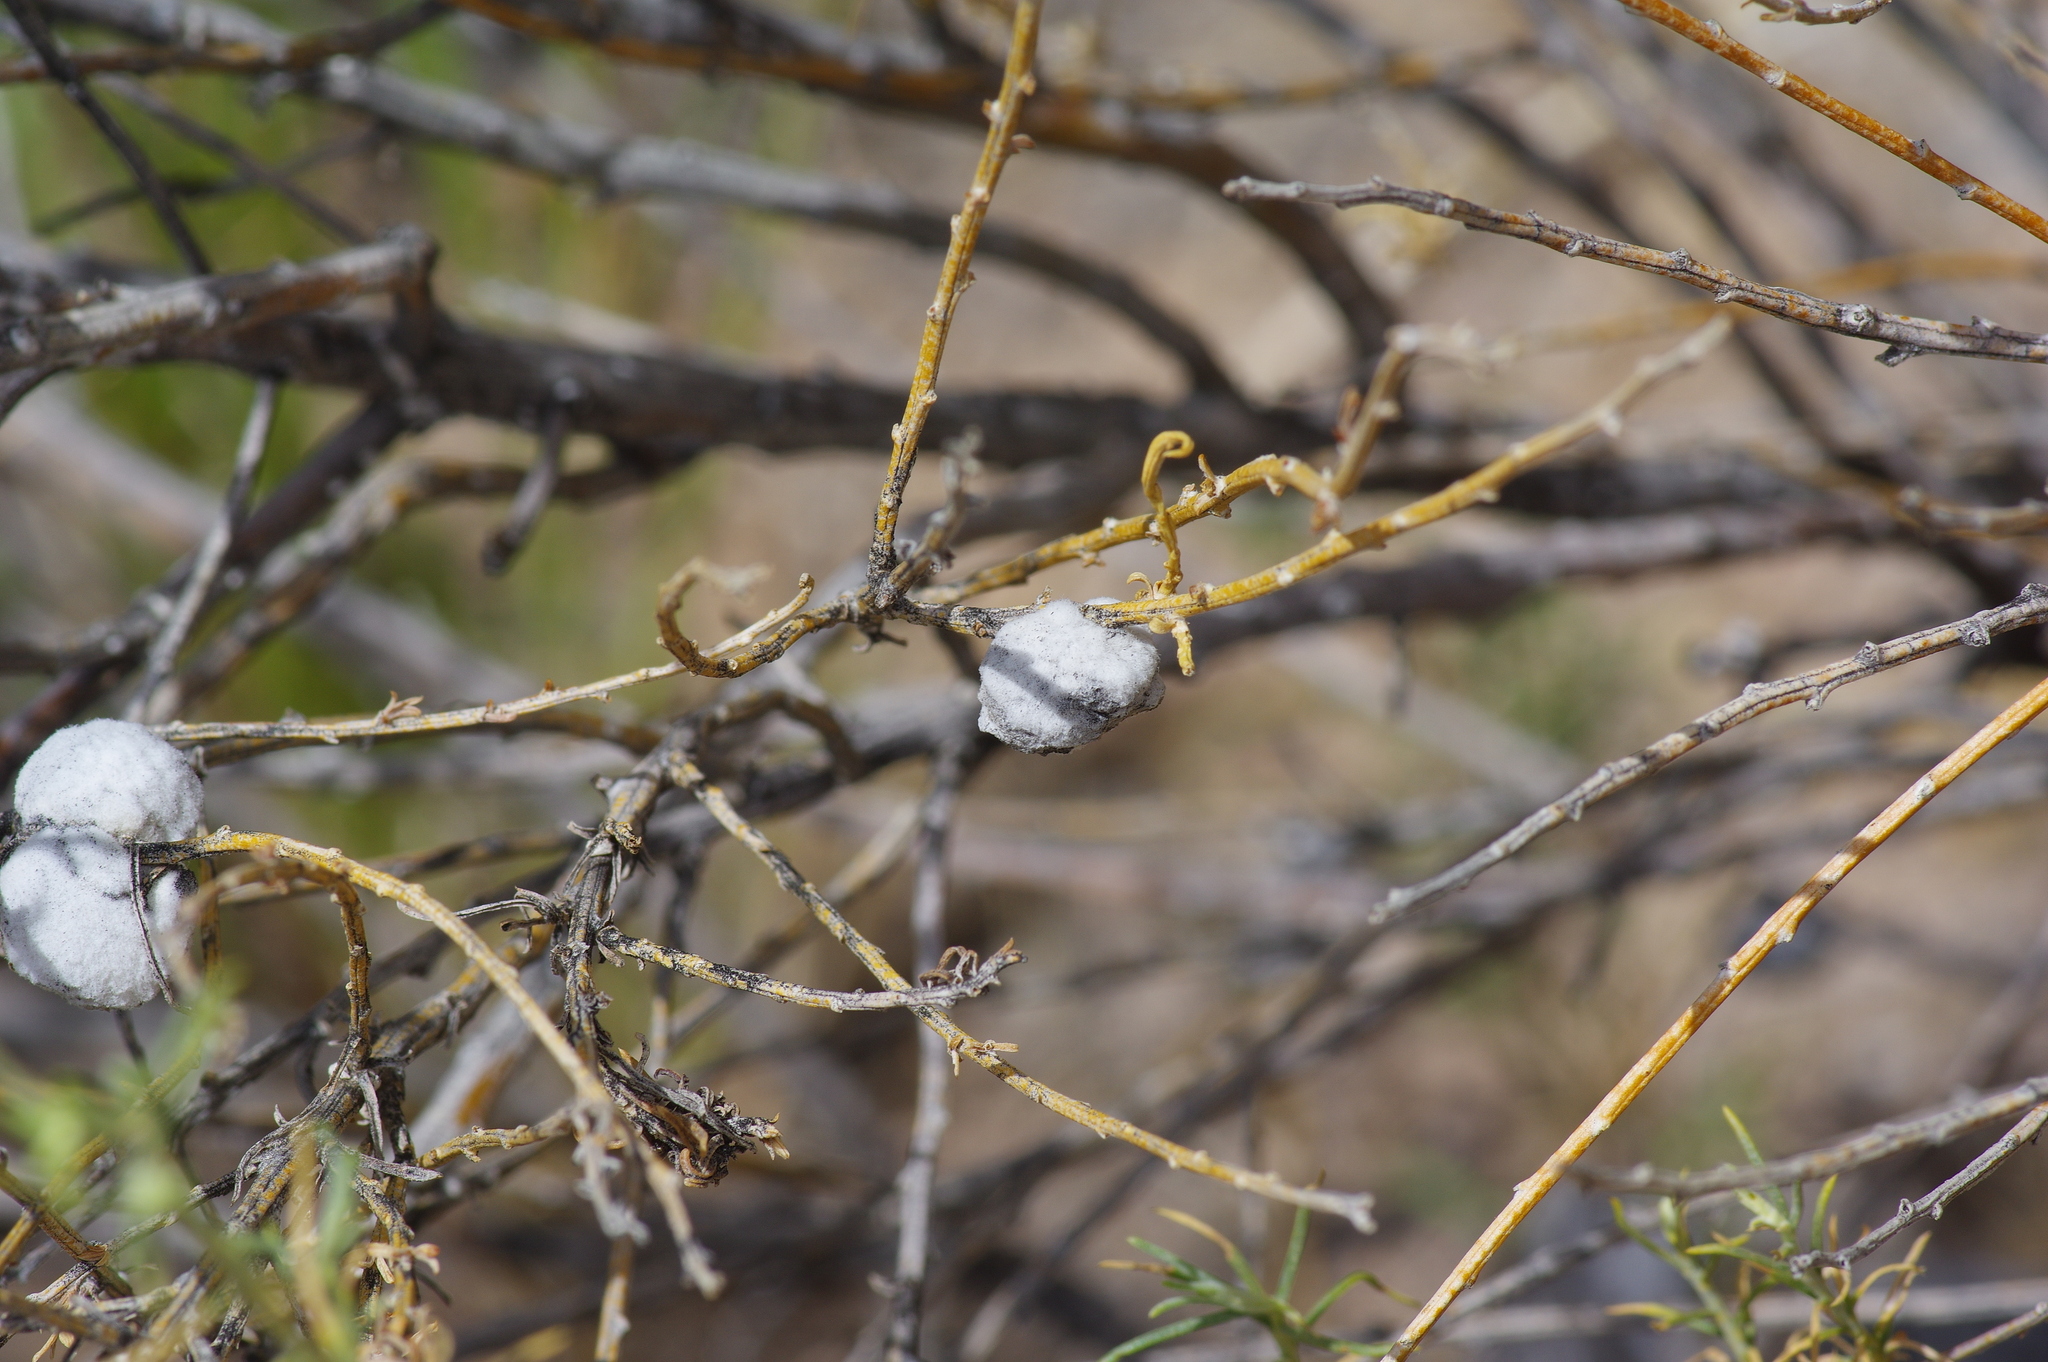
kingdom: Animalia
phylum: Arthropoda
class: Insecta
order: Diptera
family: Tephritidae
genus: Aciurina
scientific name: Aciurina bigeloviae
